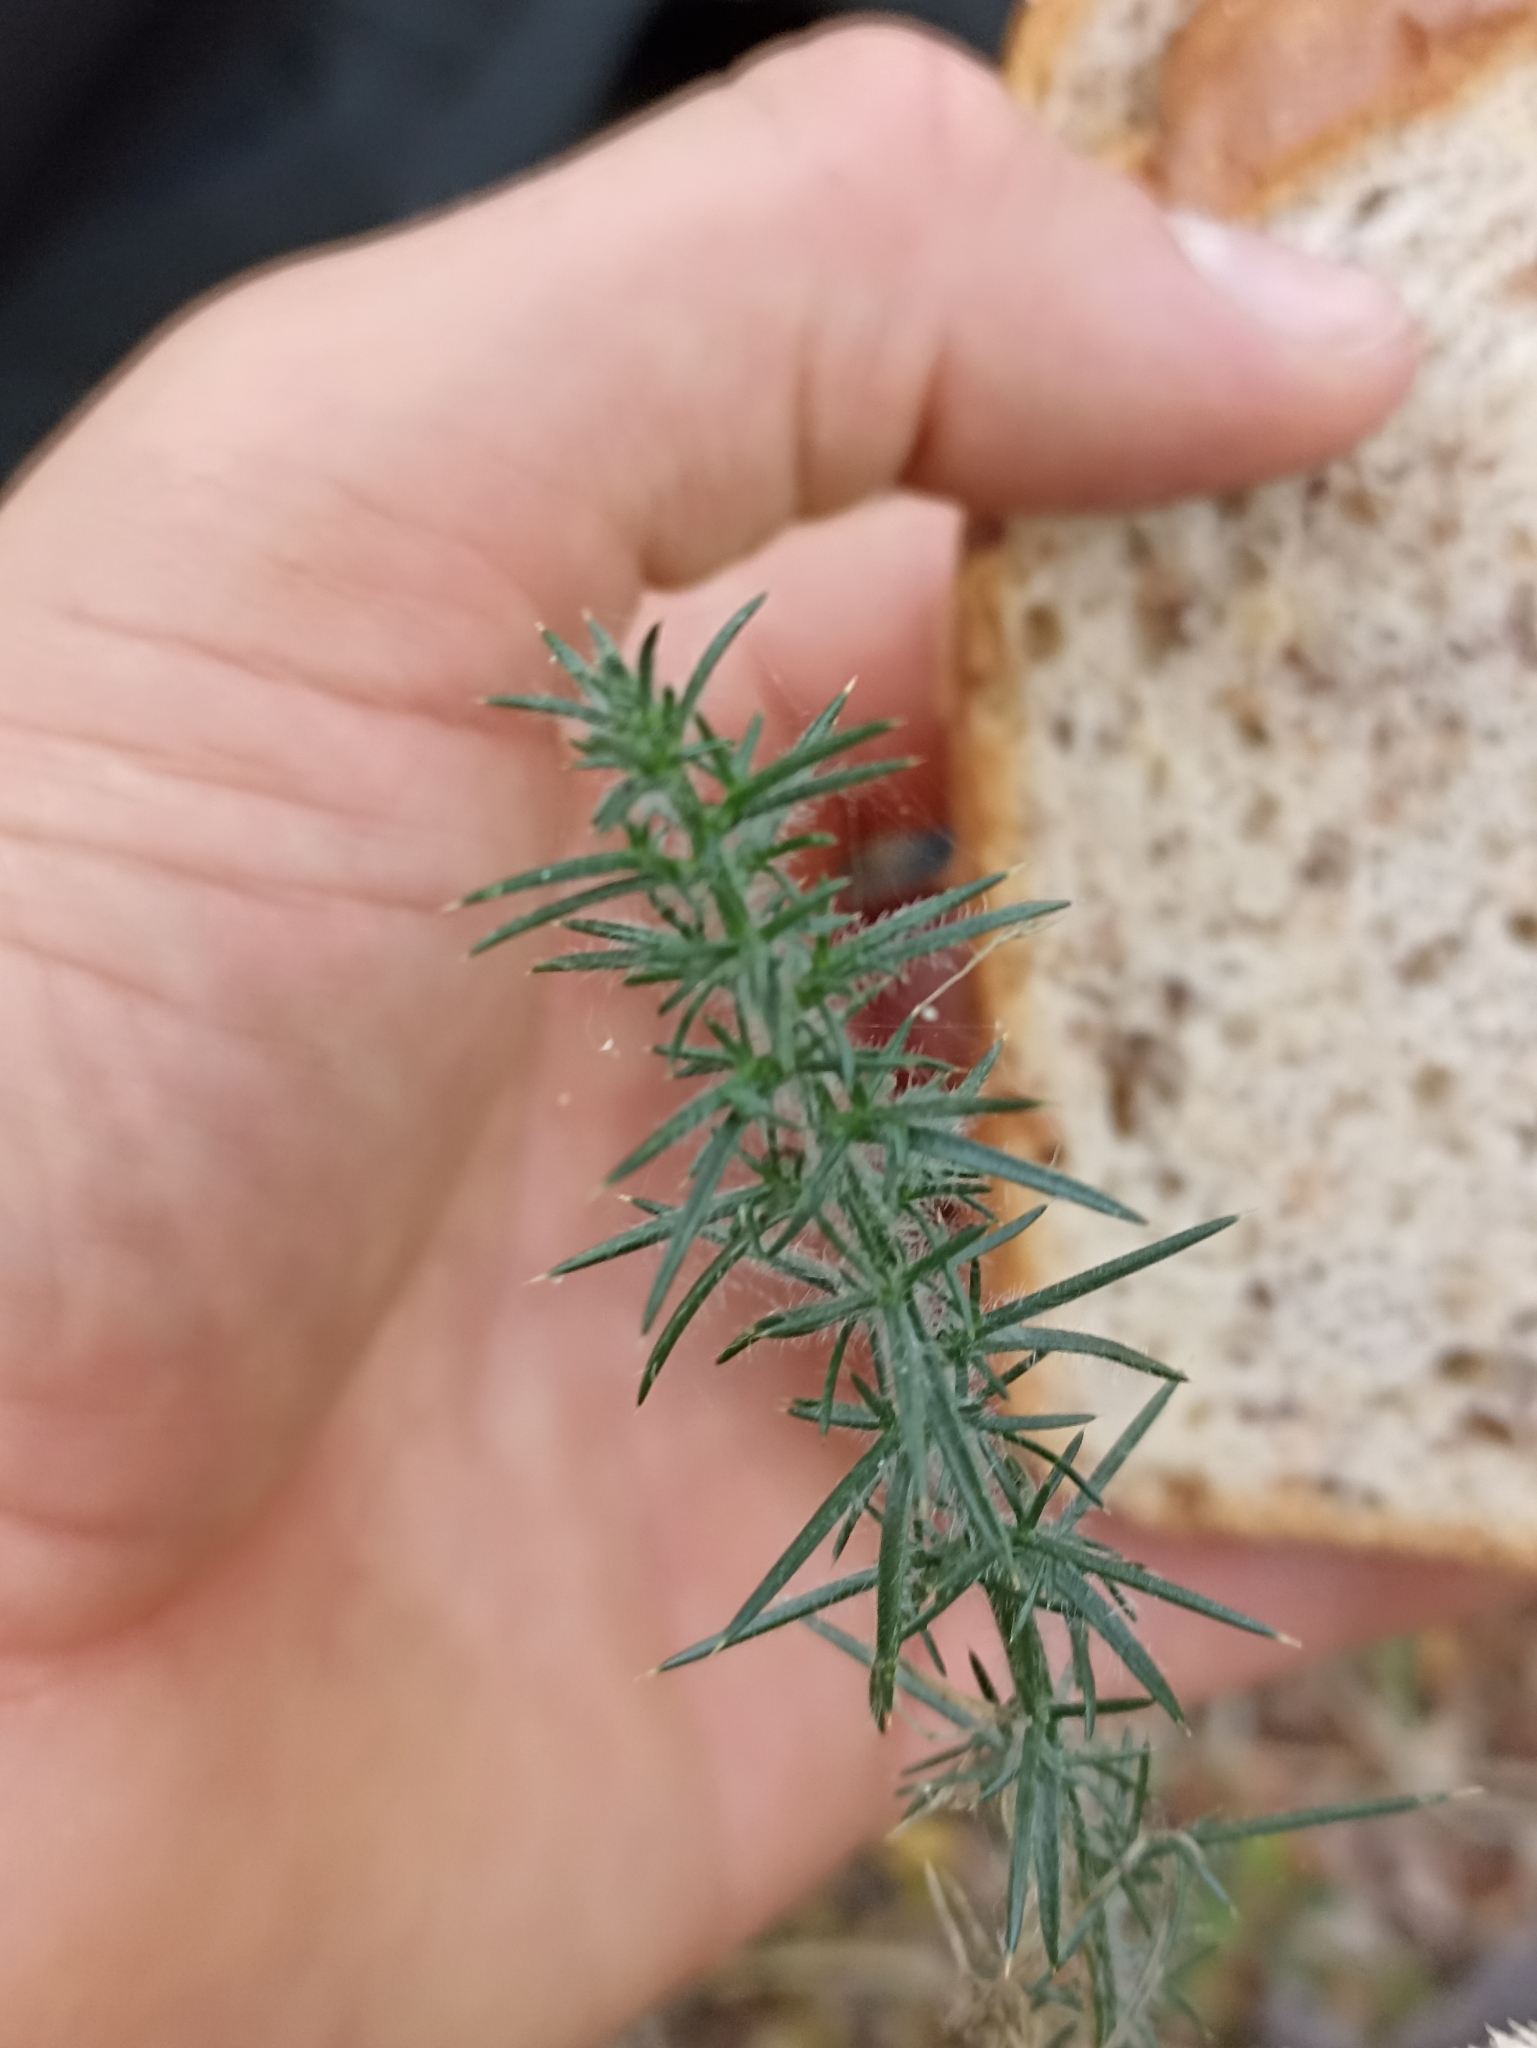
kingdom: Plantae
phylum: Tracheophyta
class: Magnoliopsida
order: Fabales
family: Fabaceae
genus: Ulex
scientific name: Ulex europaeus
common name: Common gorse
